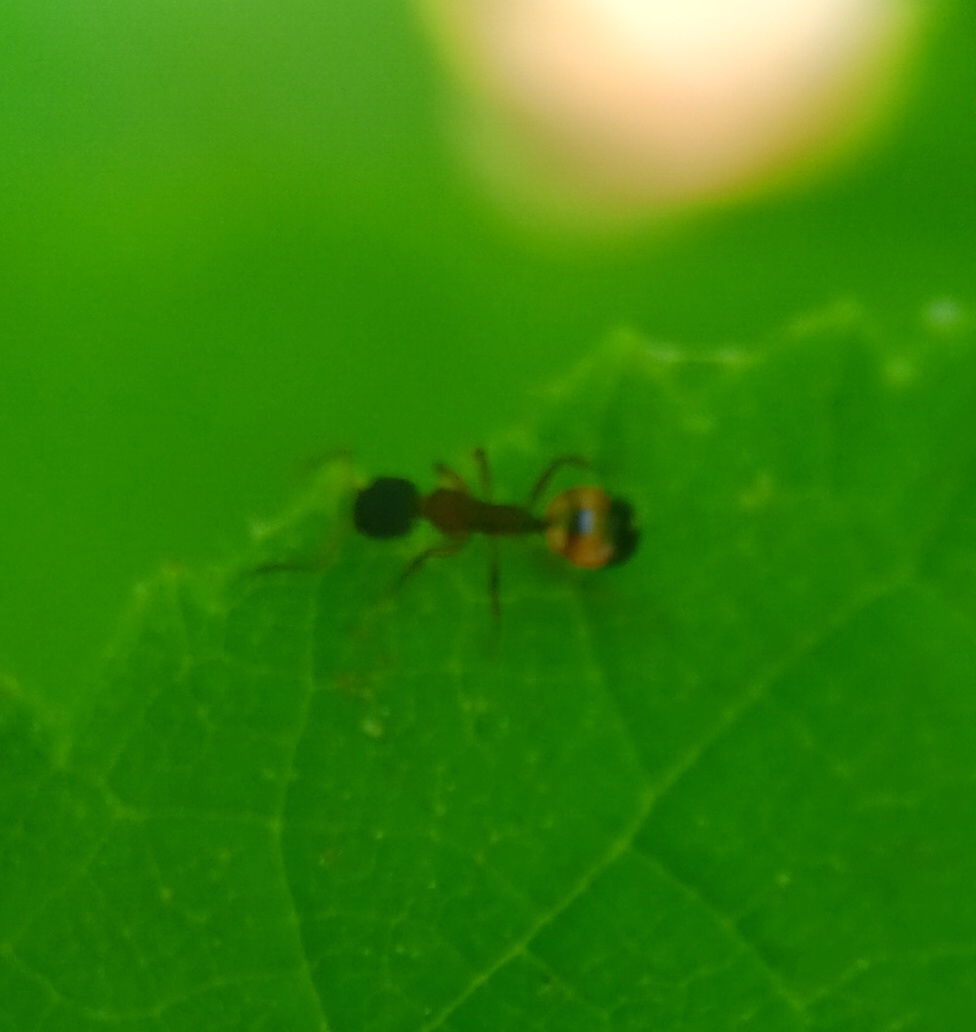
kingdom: Animalia
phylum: Arthropoda
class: Insecta
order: Hymenoptera
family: Formicidae
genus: Dolichoderus
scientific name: Dolichoderus plagiatus
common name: Mottled dolichoderus
